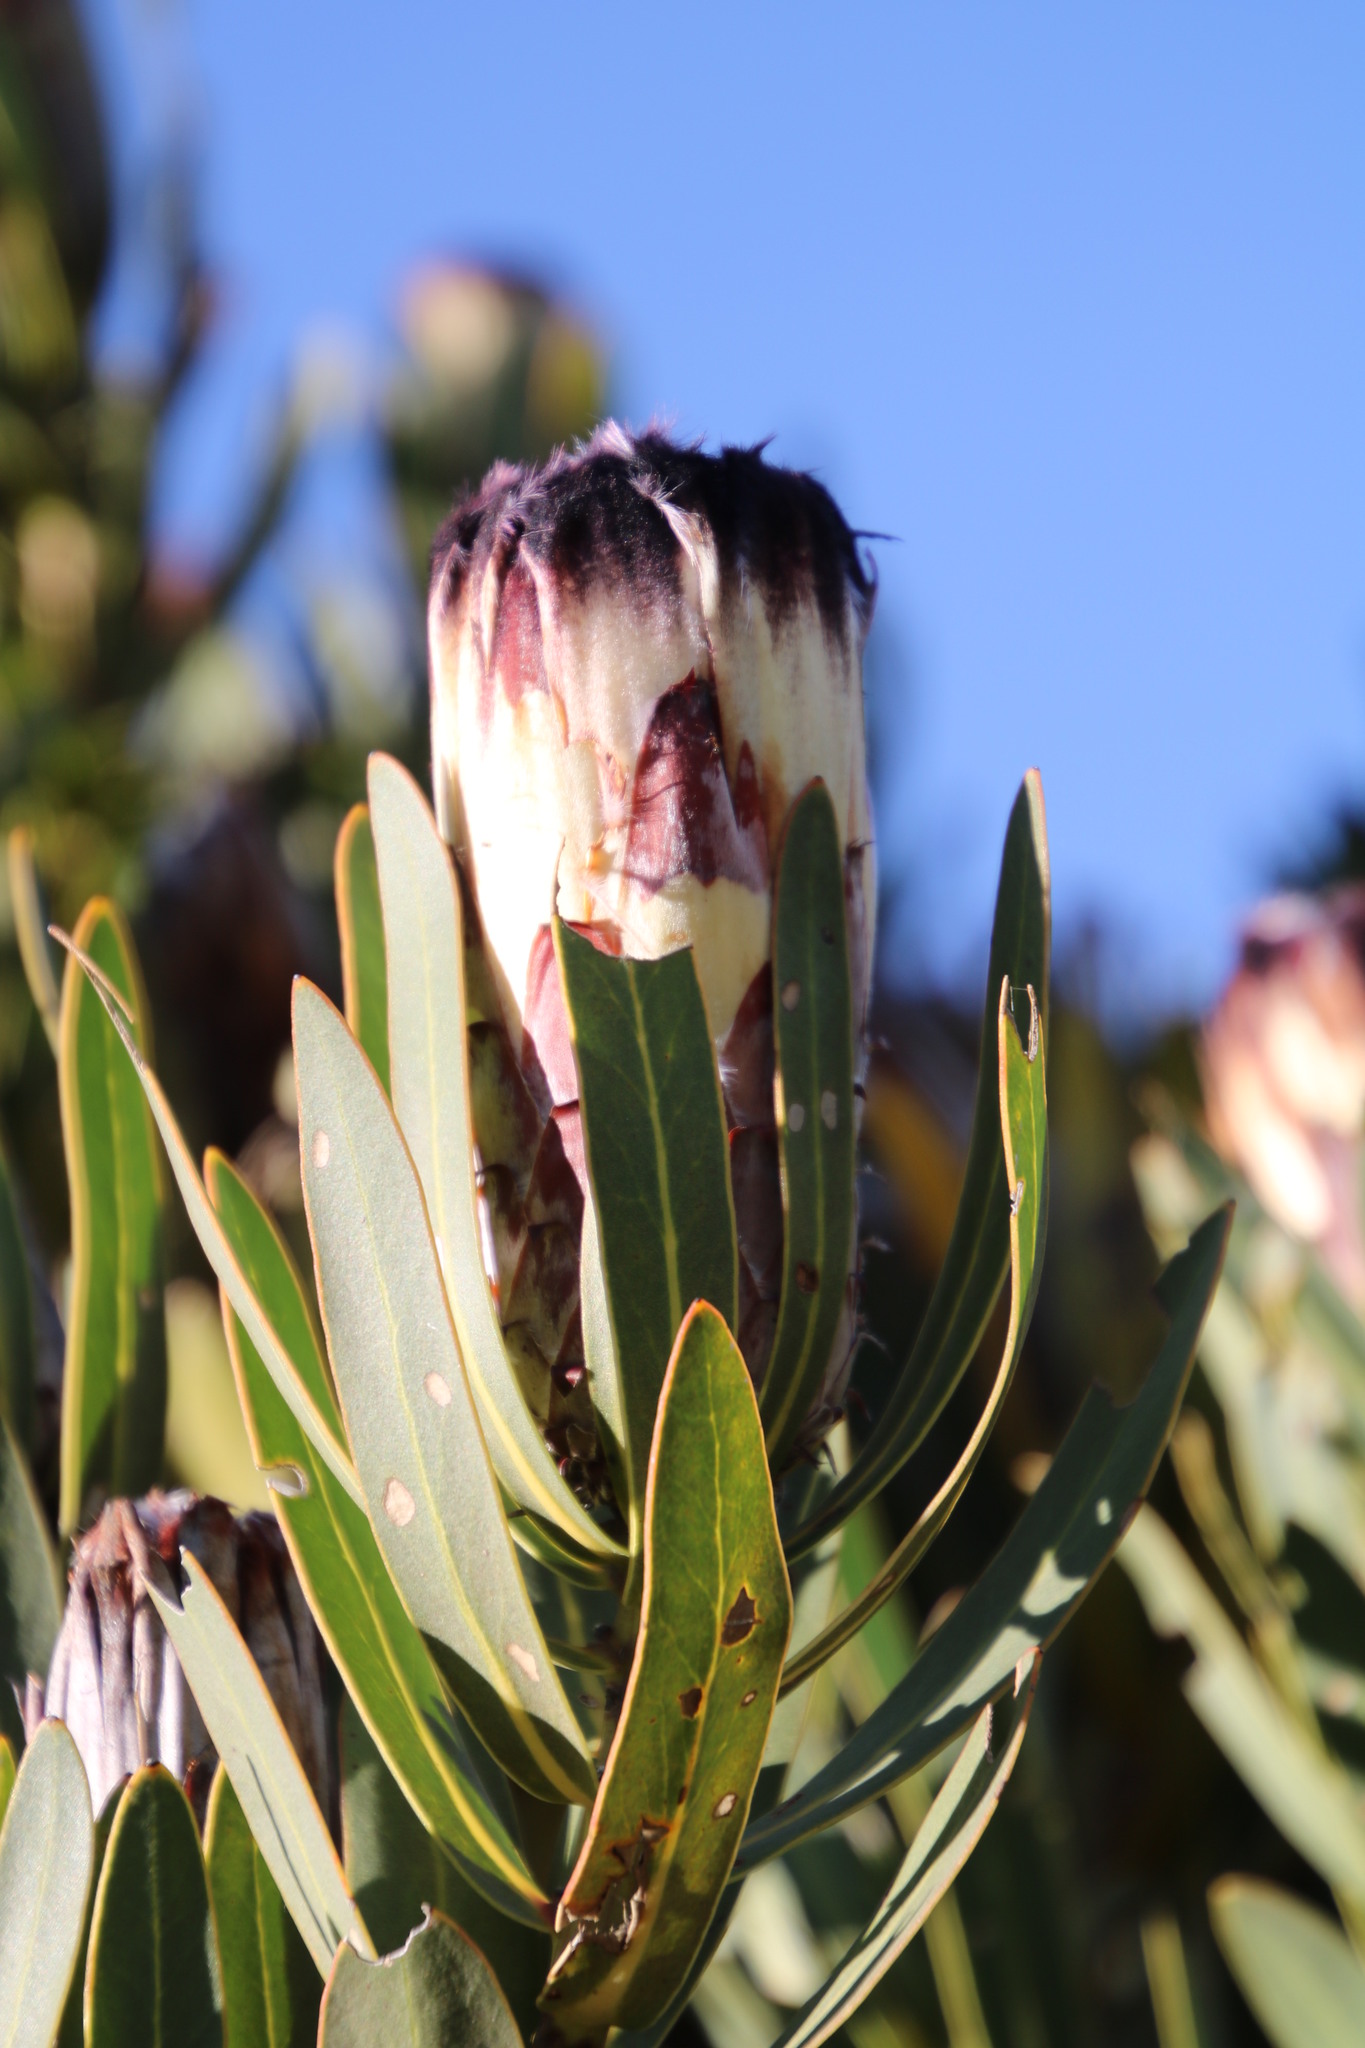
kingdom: Plantae
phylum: Tracheophyta
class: Magnoliopsida
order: Proteales
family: Proteaceae
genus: Protea
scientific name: Protea lepidocarpodendron
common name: Black-bearded protea
